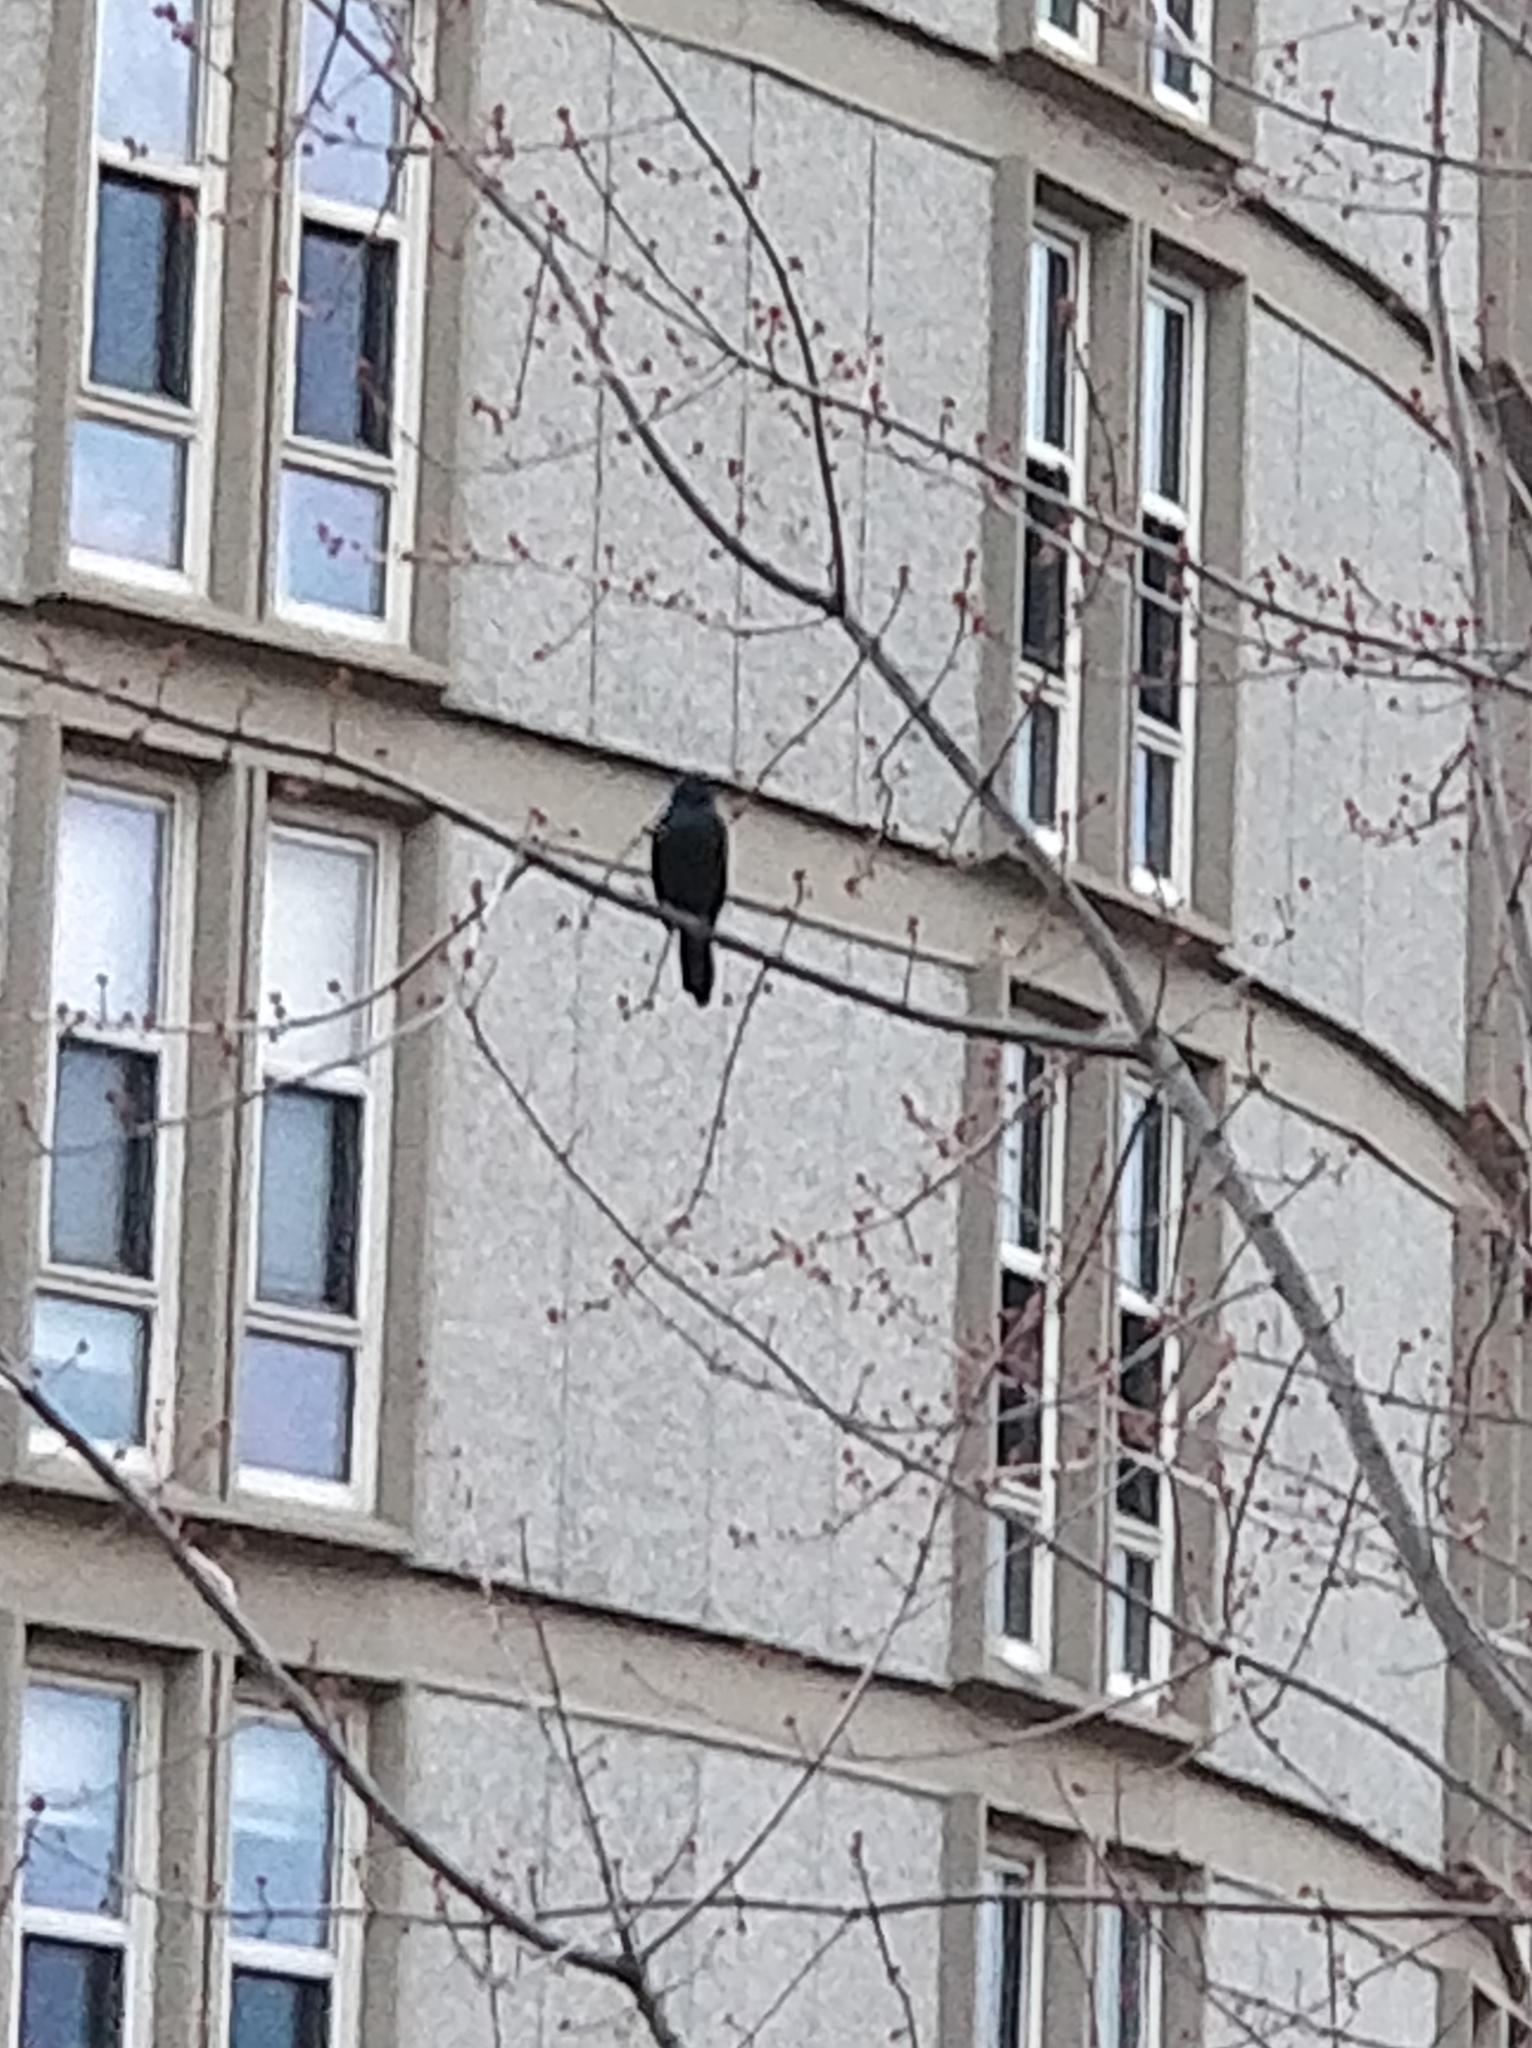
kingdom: Animalia
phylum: Chordata
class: Aves
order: Passeriformes
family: Icteridae
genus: Quiscalus
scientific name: Quiscalus quiscula
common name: Common grackle
